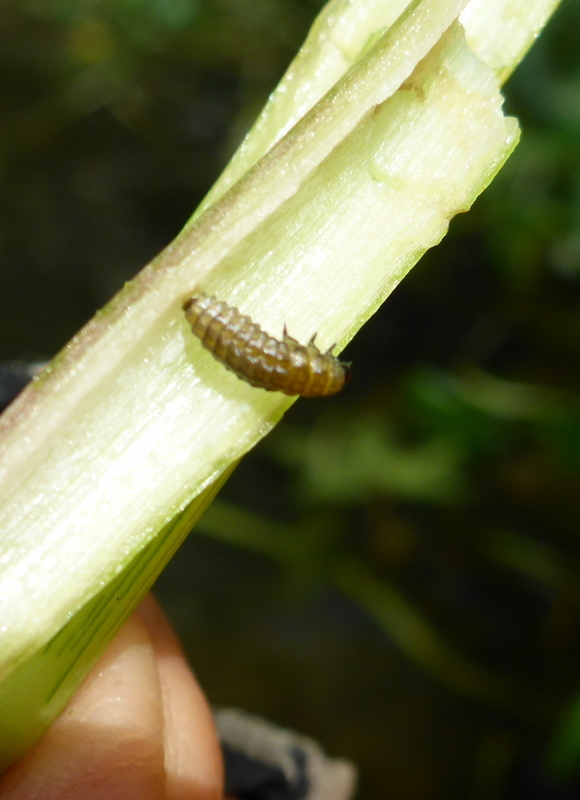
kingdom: Animalia
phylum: Arthropoda
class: Insecta
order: Coleoptera
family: Chrysomelidae
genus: Agasicles
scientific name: Agasicles hygrophila
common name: Alligatorweed flea beetle
